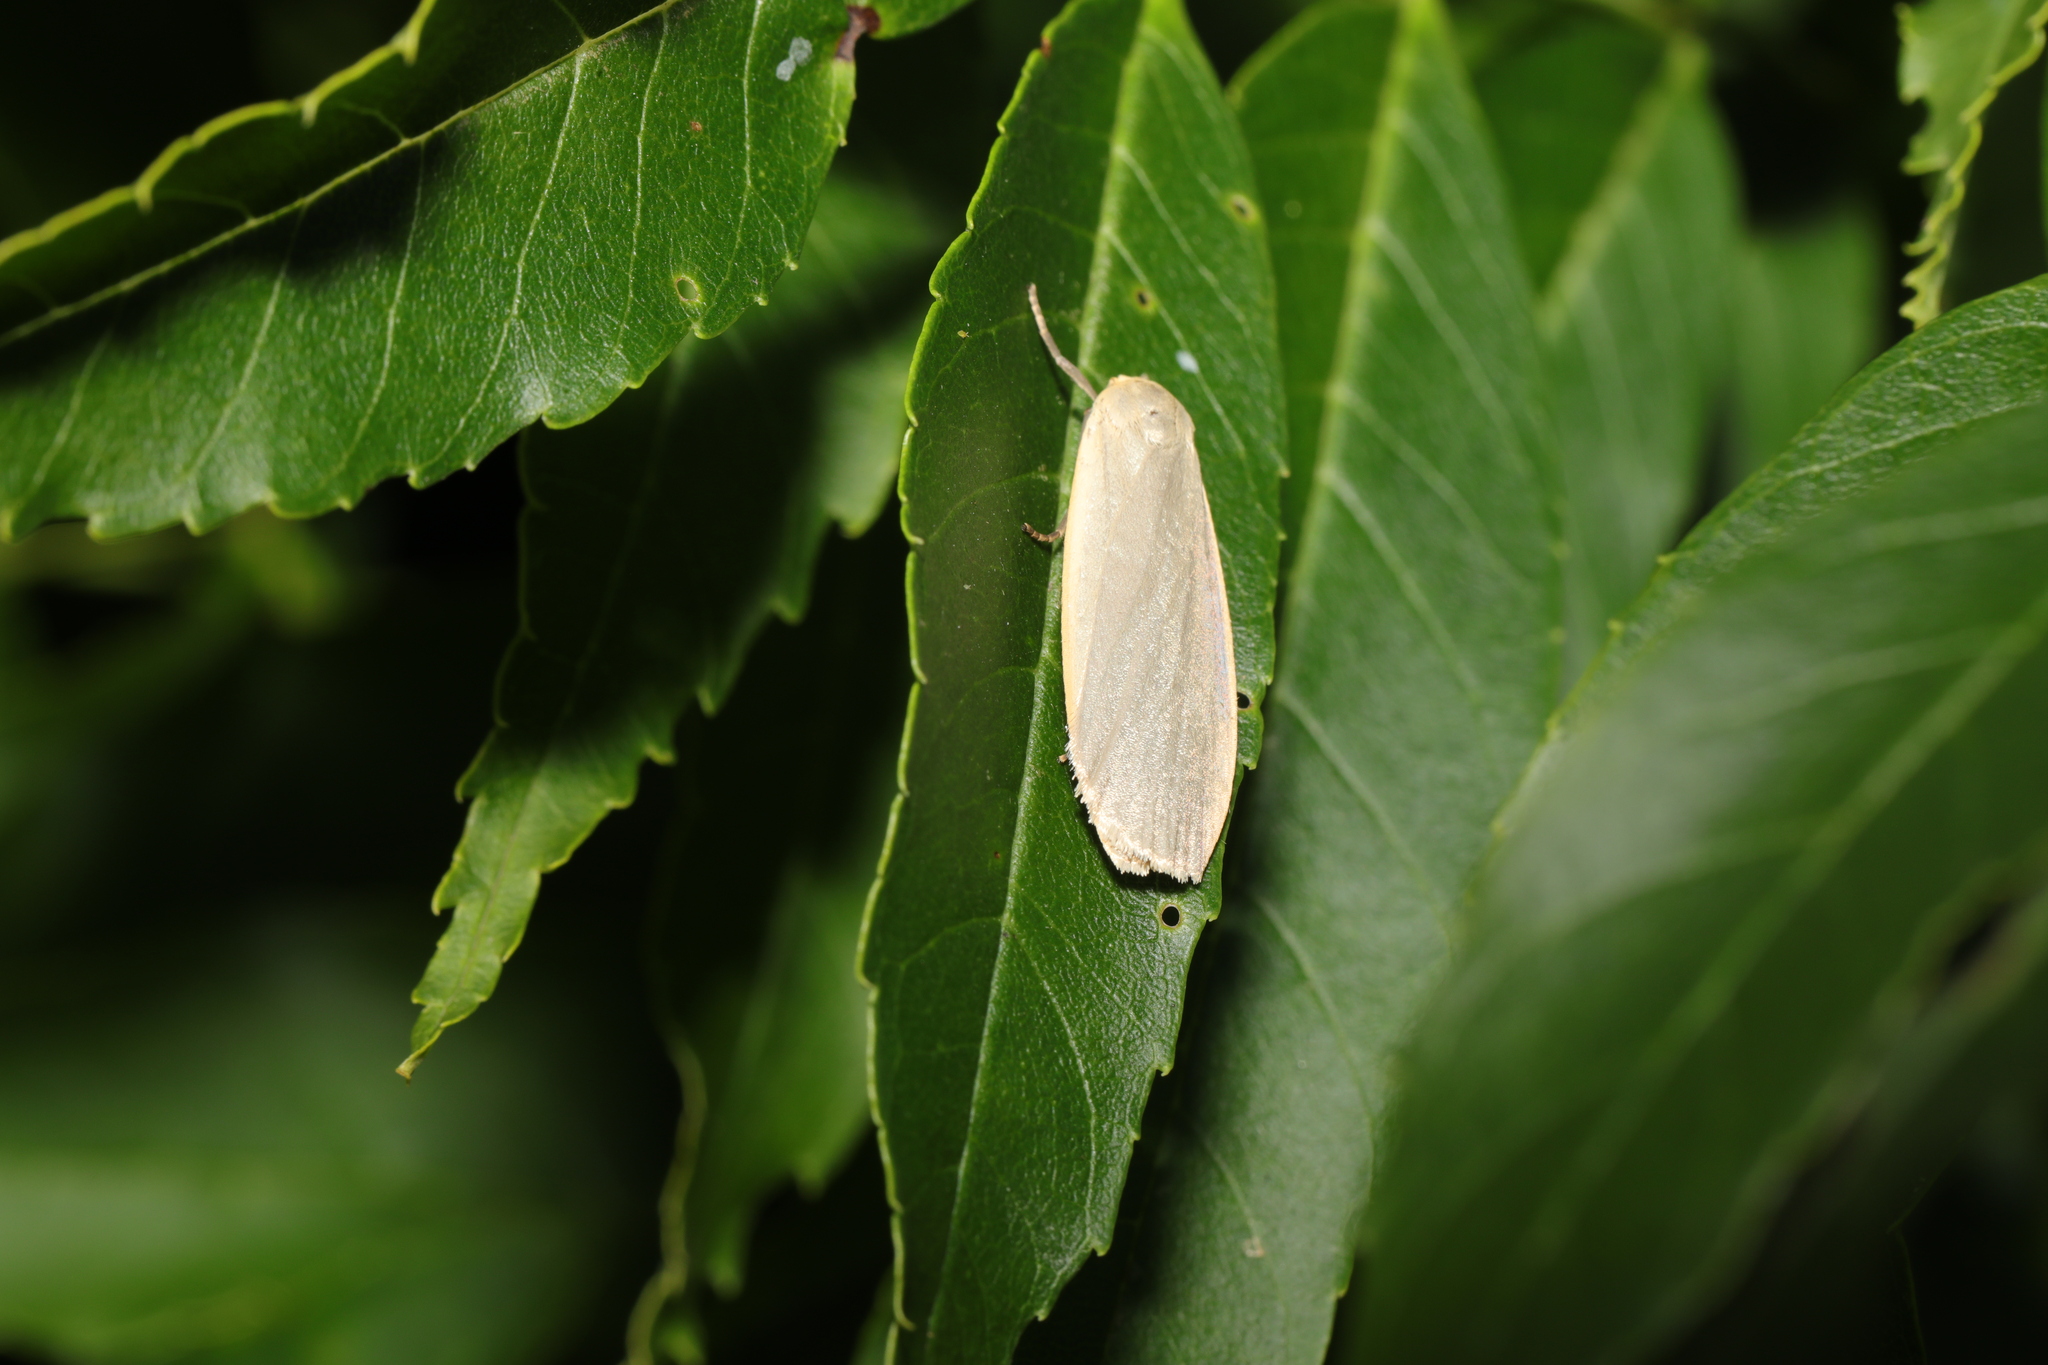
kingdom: Animalia
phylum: Arthropoda
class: Insecta
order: Lepidoptera
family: Erebidae
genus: Collita
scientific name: Collita griseola
